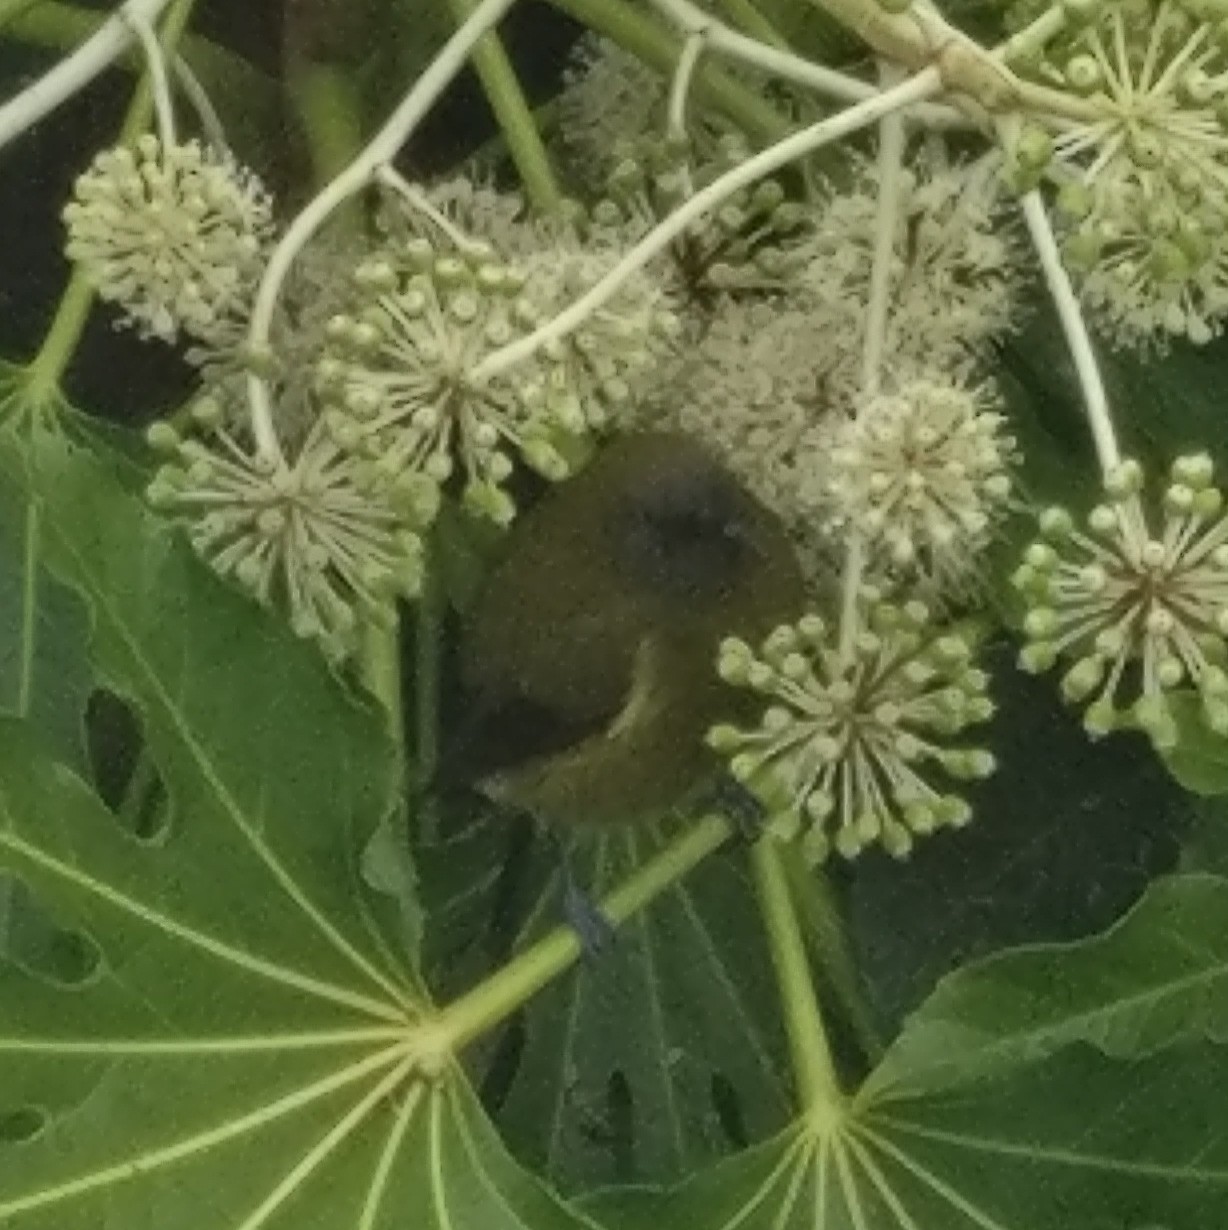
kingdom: Animalia
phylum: Chordata
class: Aves
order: Passeriformes
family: Meliphagidae
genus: Anthornis
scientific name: Anthornis melanura
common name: New zealand bellbird
